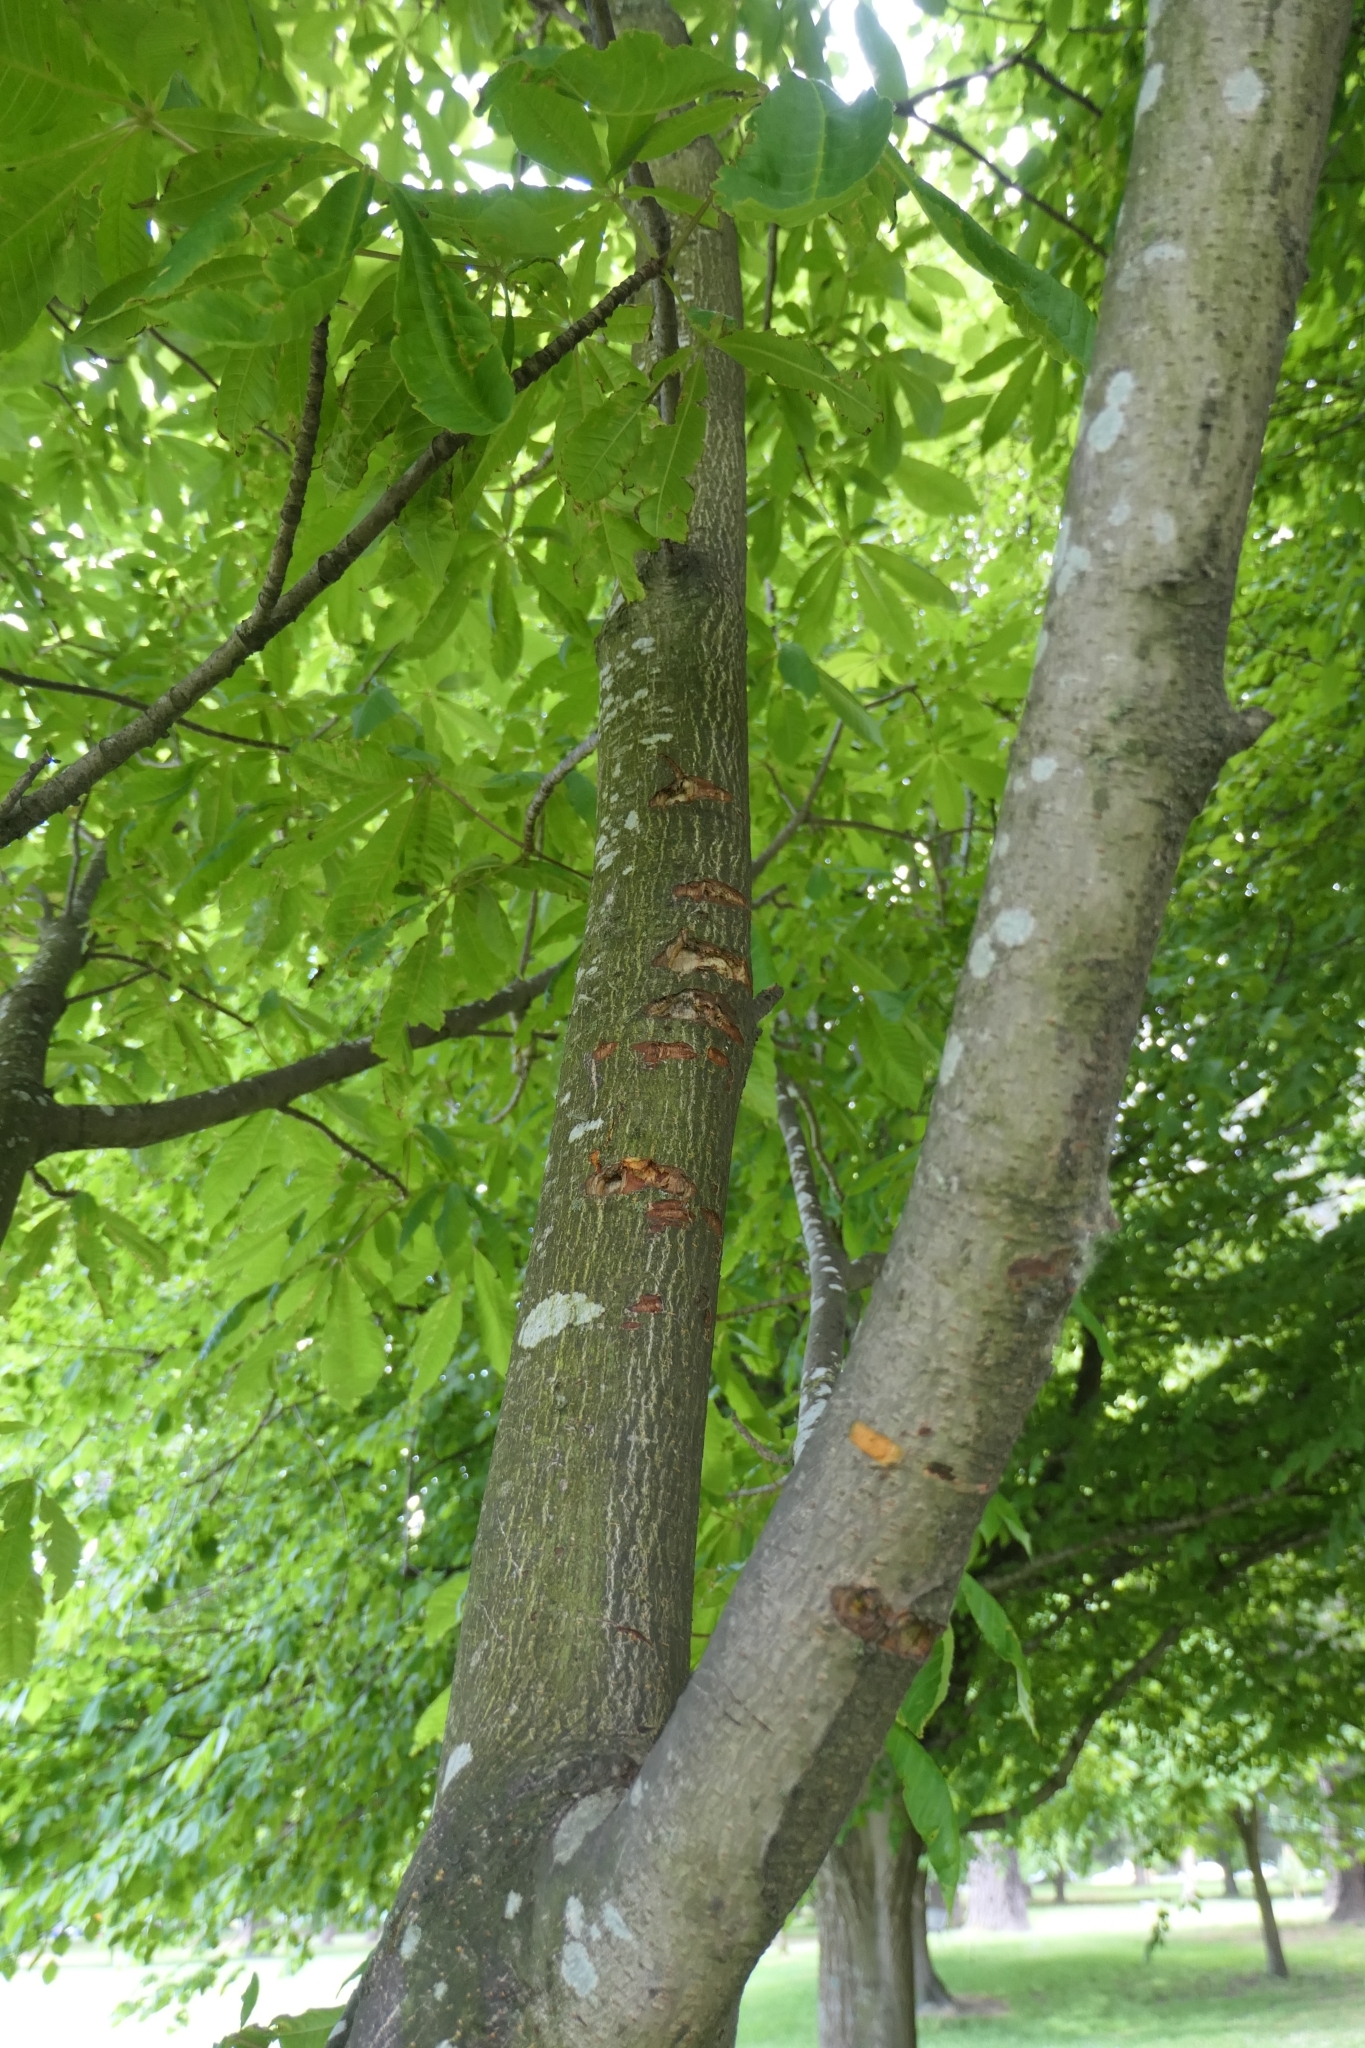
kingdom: Animalia
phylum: Chordata
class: Mammalia
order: Diprotodontia
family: Phalangeridae
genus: Trichosurus
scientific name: Trichosurus vulpecula
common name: Common brushtail
